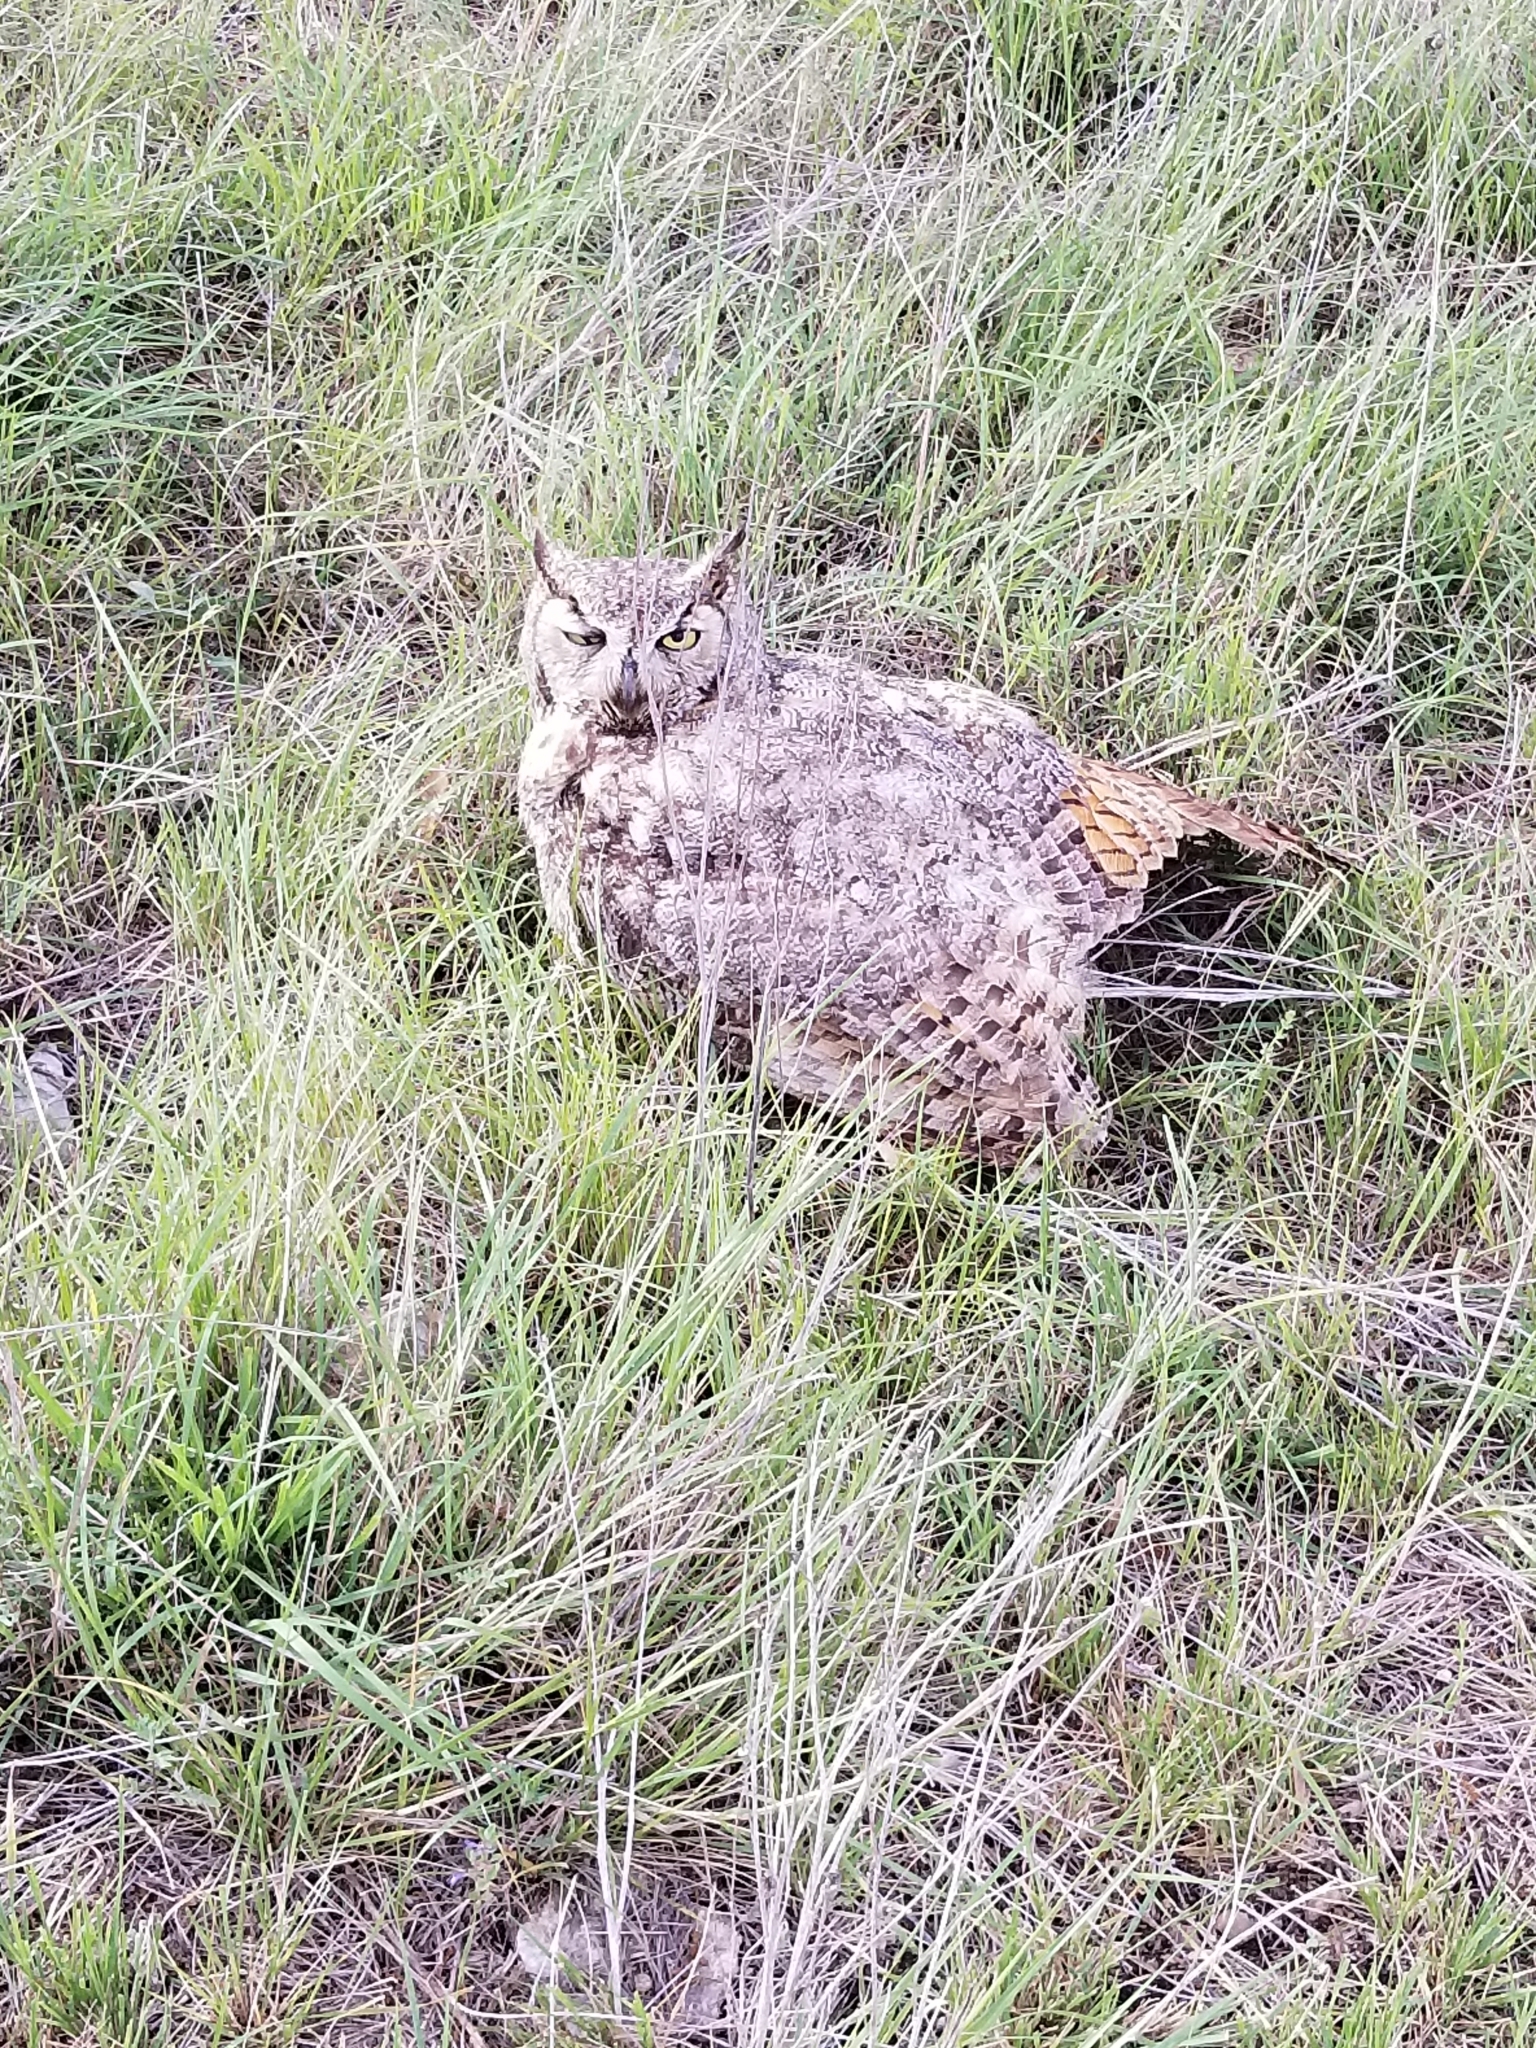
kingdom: Animalia
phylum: Chordata
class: Aves
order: Strigiformes
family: Strigidae
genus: Bubo
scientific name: Bubo virginianus
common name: Great horned owl
